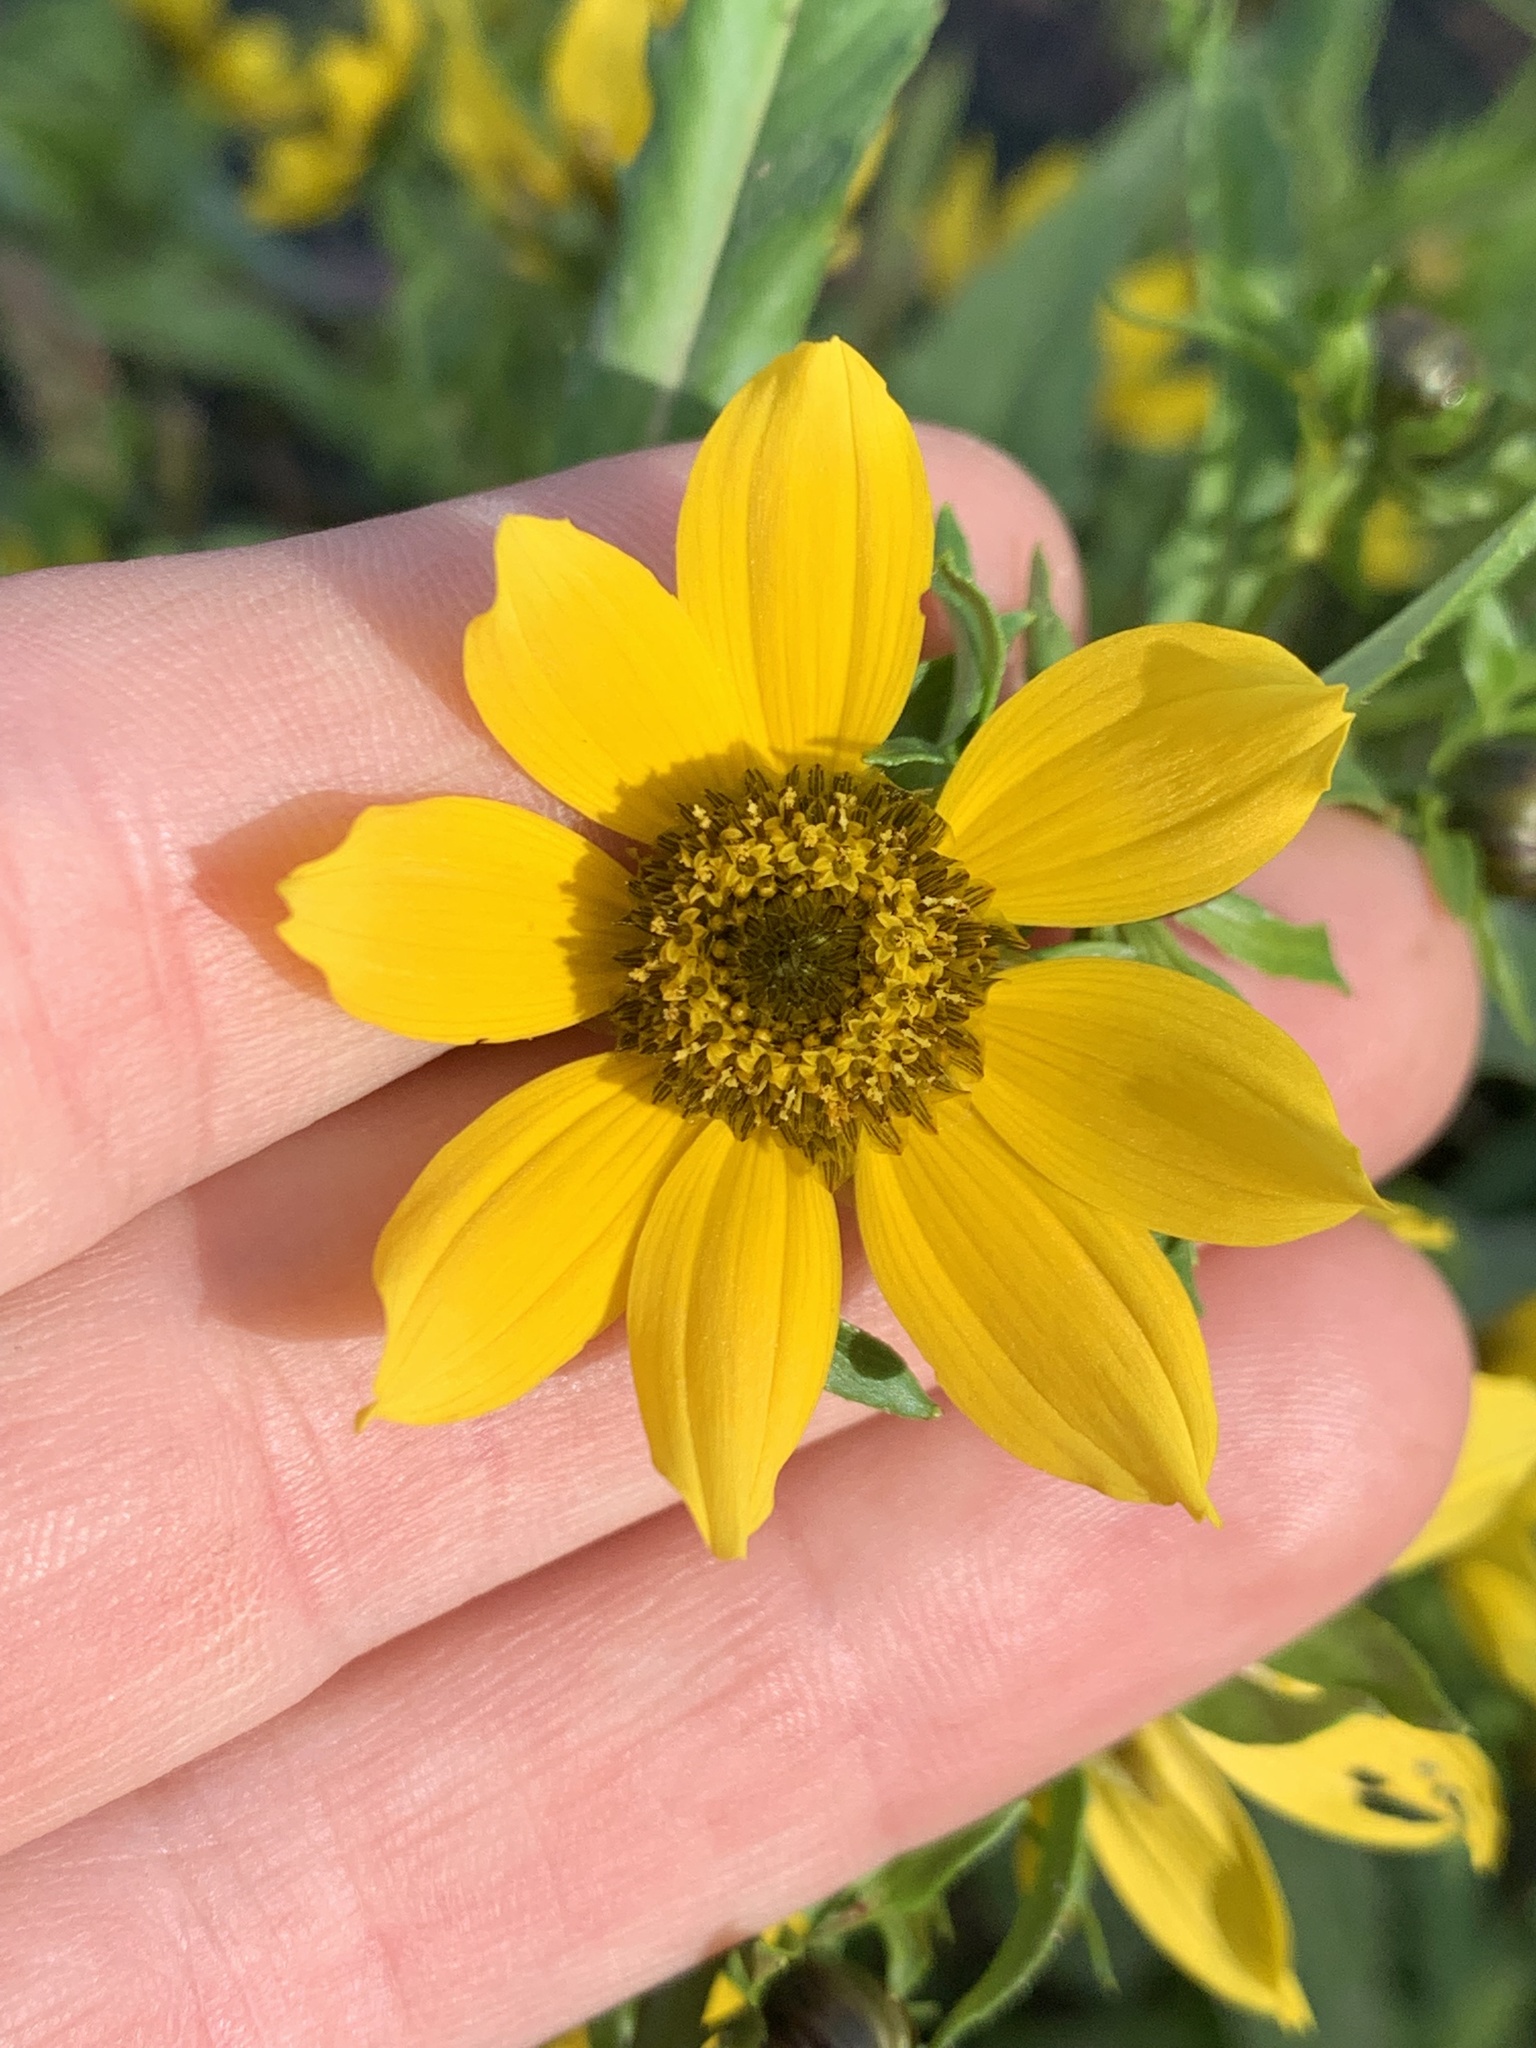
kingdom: Plantae
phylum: Tracheophyta
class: Magnoliopsida
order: Asterales
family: Asteraceae
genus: Bidens
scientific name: Bidens cernua
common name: Nodding bur-marigold
